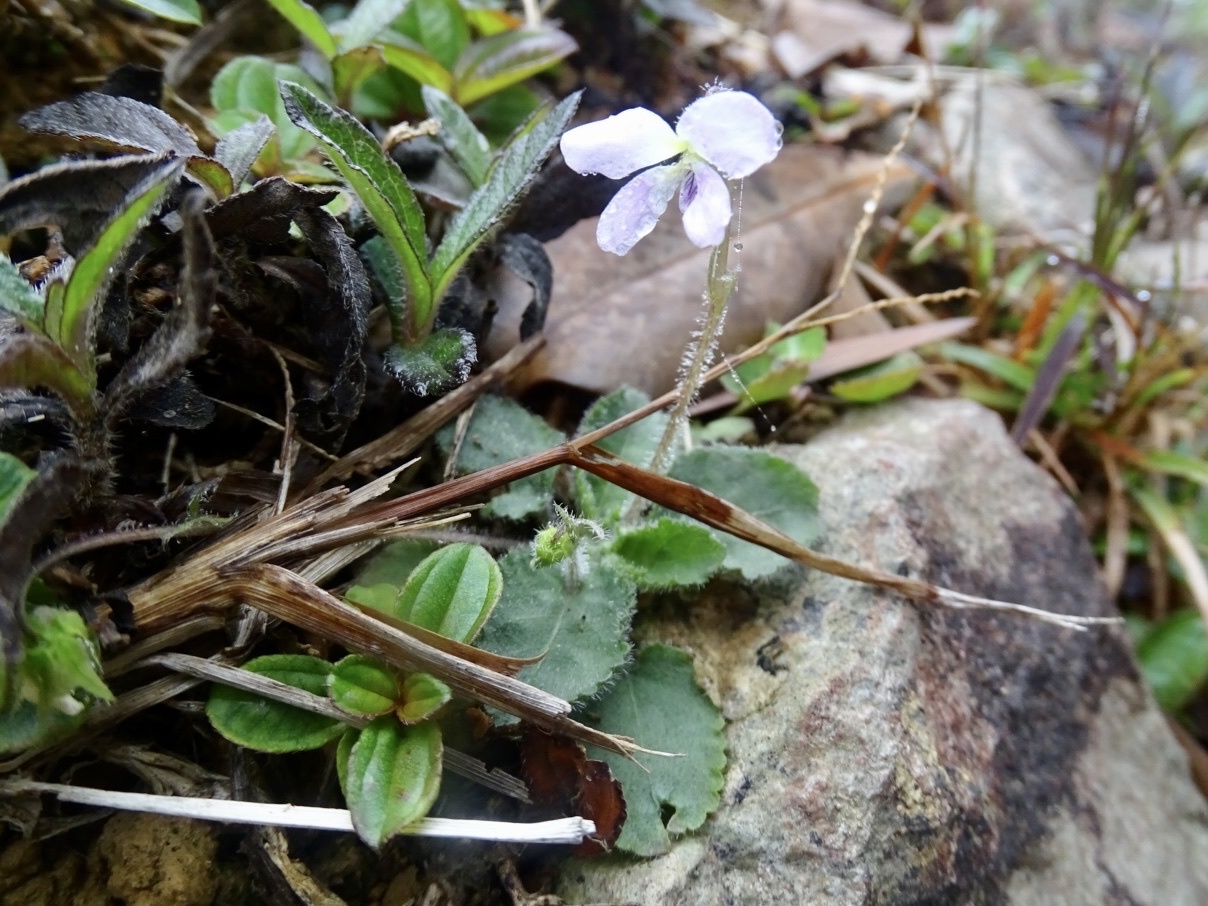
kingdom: Plantae
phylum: Tracheophyta
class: Magnoliopsida
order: Malpighiales
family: Violaceae
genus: Viola
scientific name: Viola diffusa
